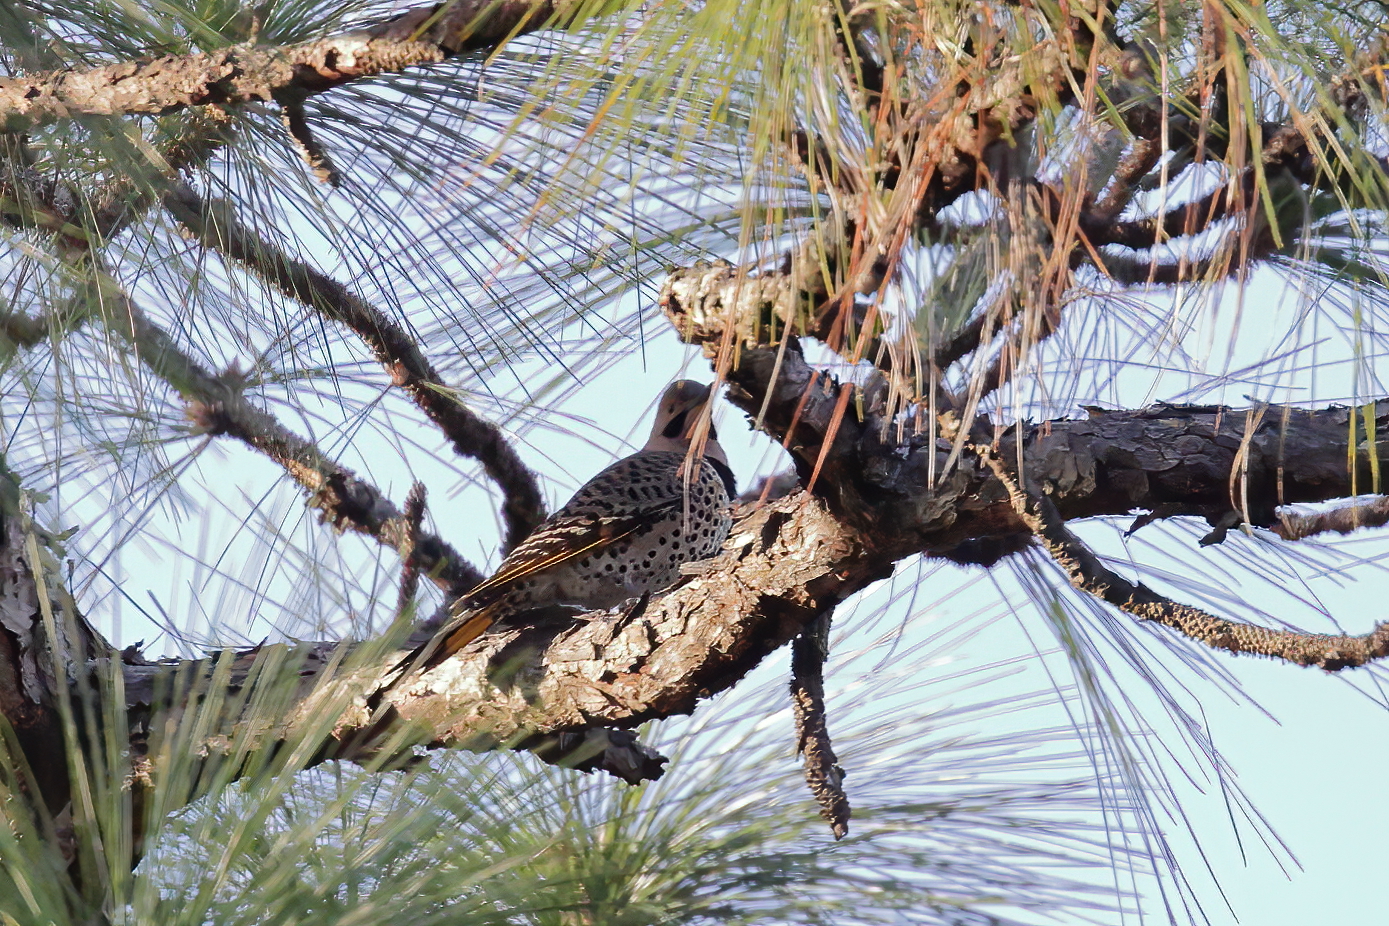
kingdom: Animalia
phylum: Chordata
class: Aves
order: Piciformes
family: Picidae
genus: Colaptes
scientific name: Colaptes auratus
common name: Northern flicker
